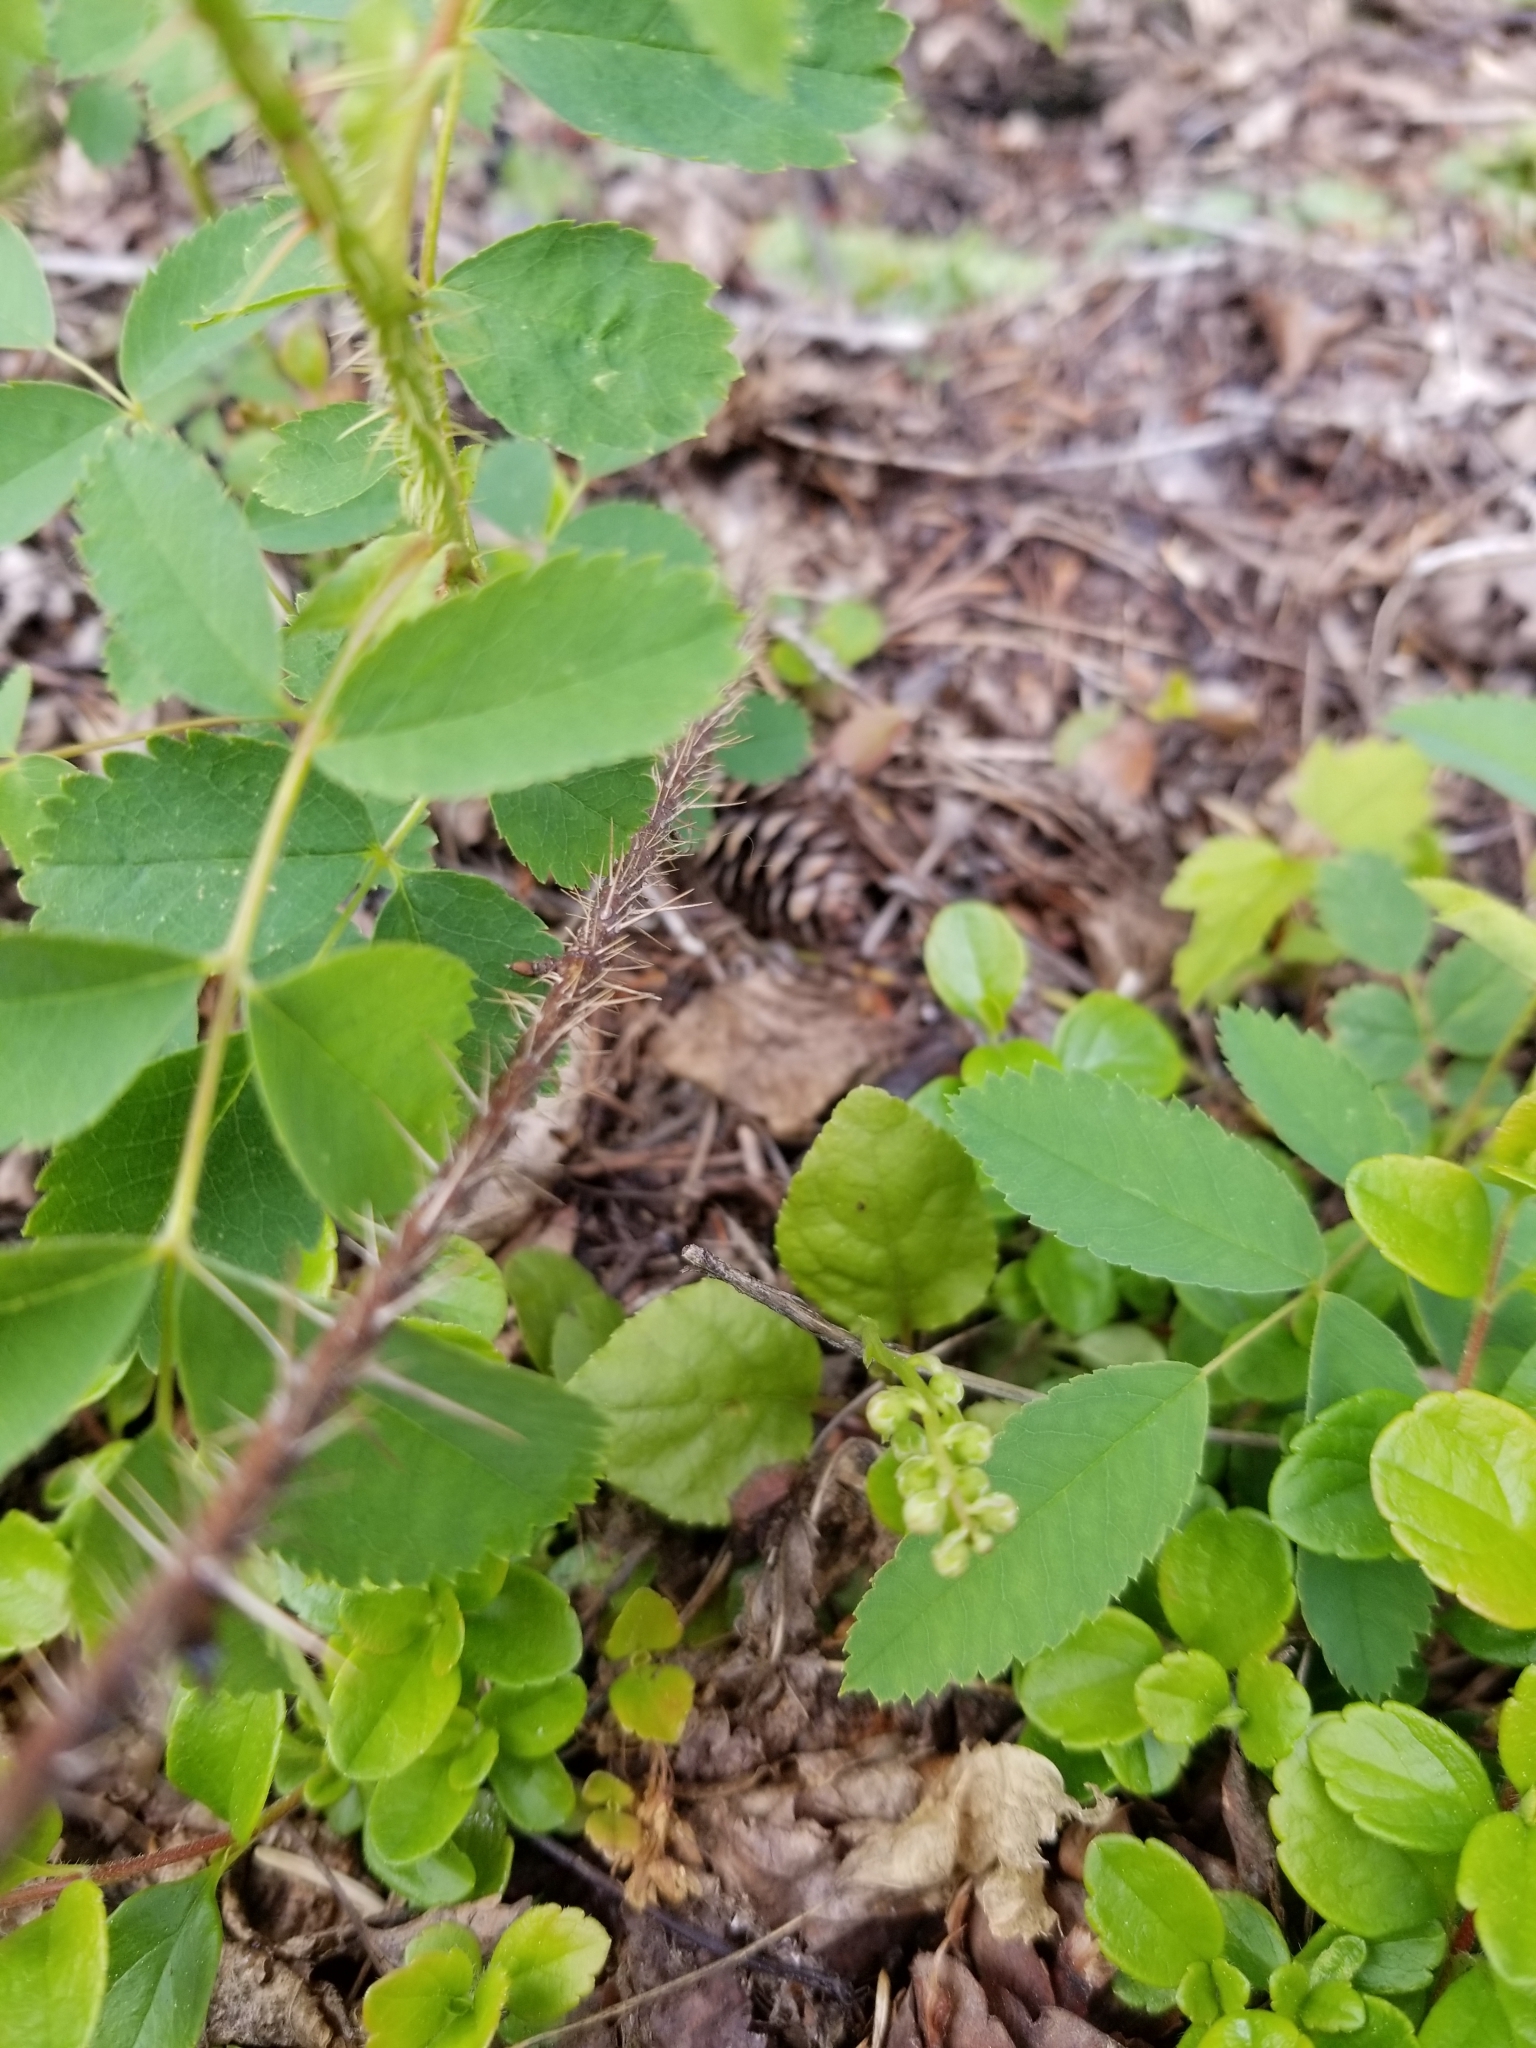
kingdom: Plantae
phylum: Tracheophyta
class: Magnoliopsida
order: Ericales
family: Ericaceae
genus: Orthilia
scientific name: Orthilia secunda
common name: One-sided orthilia
